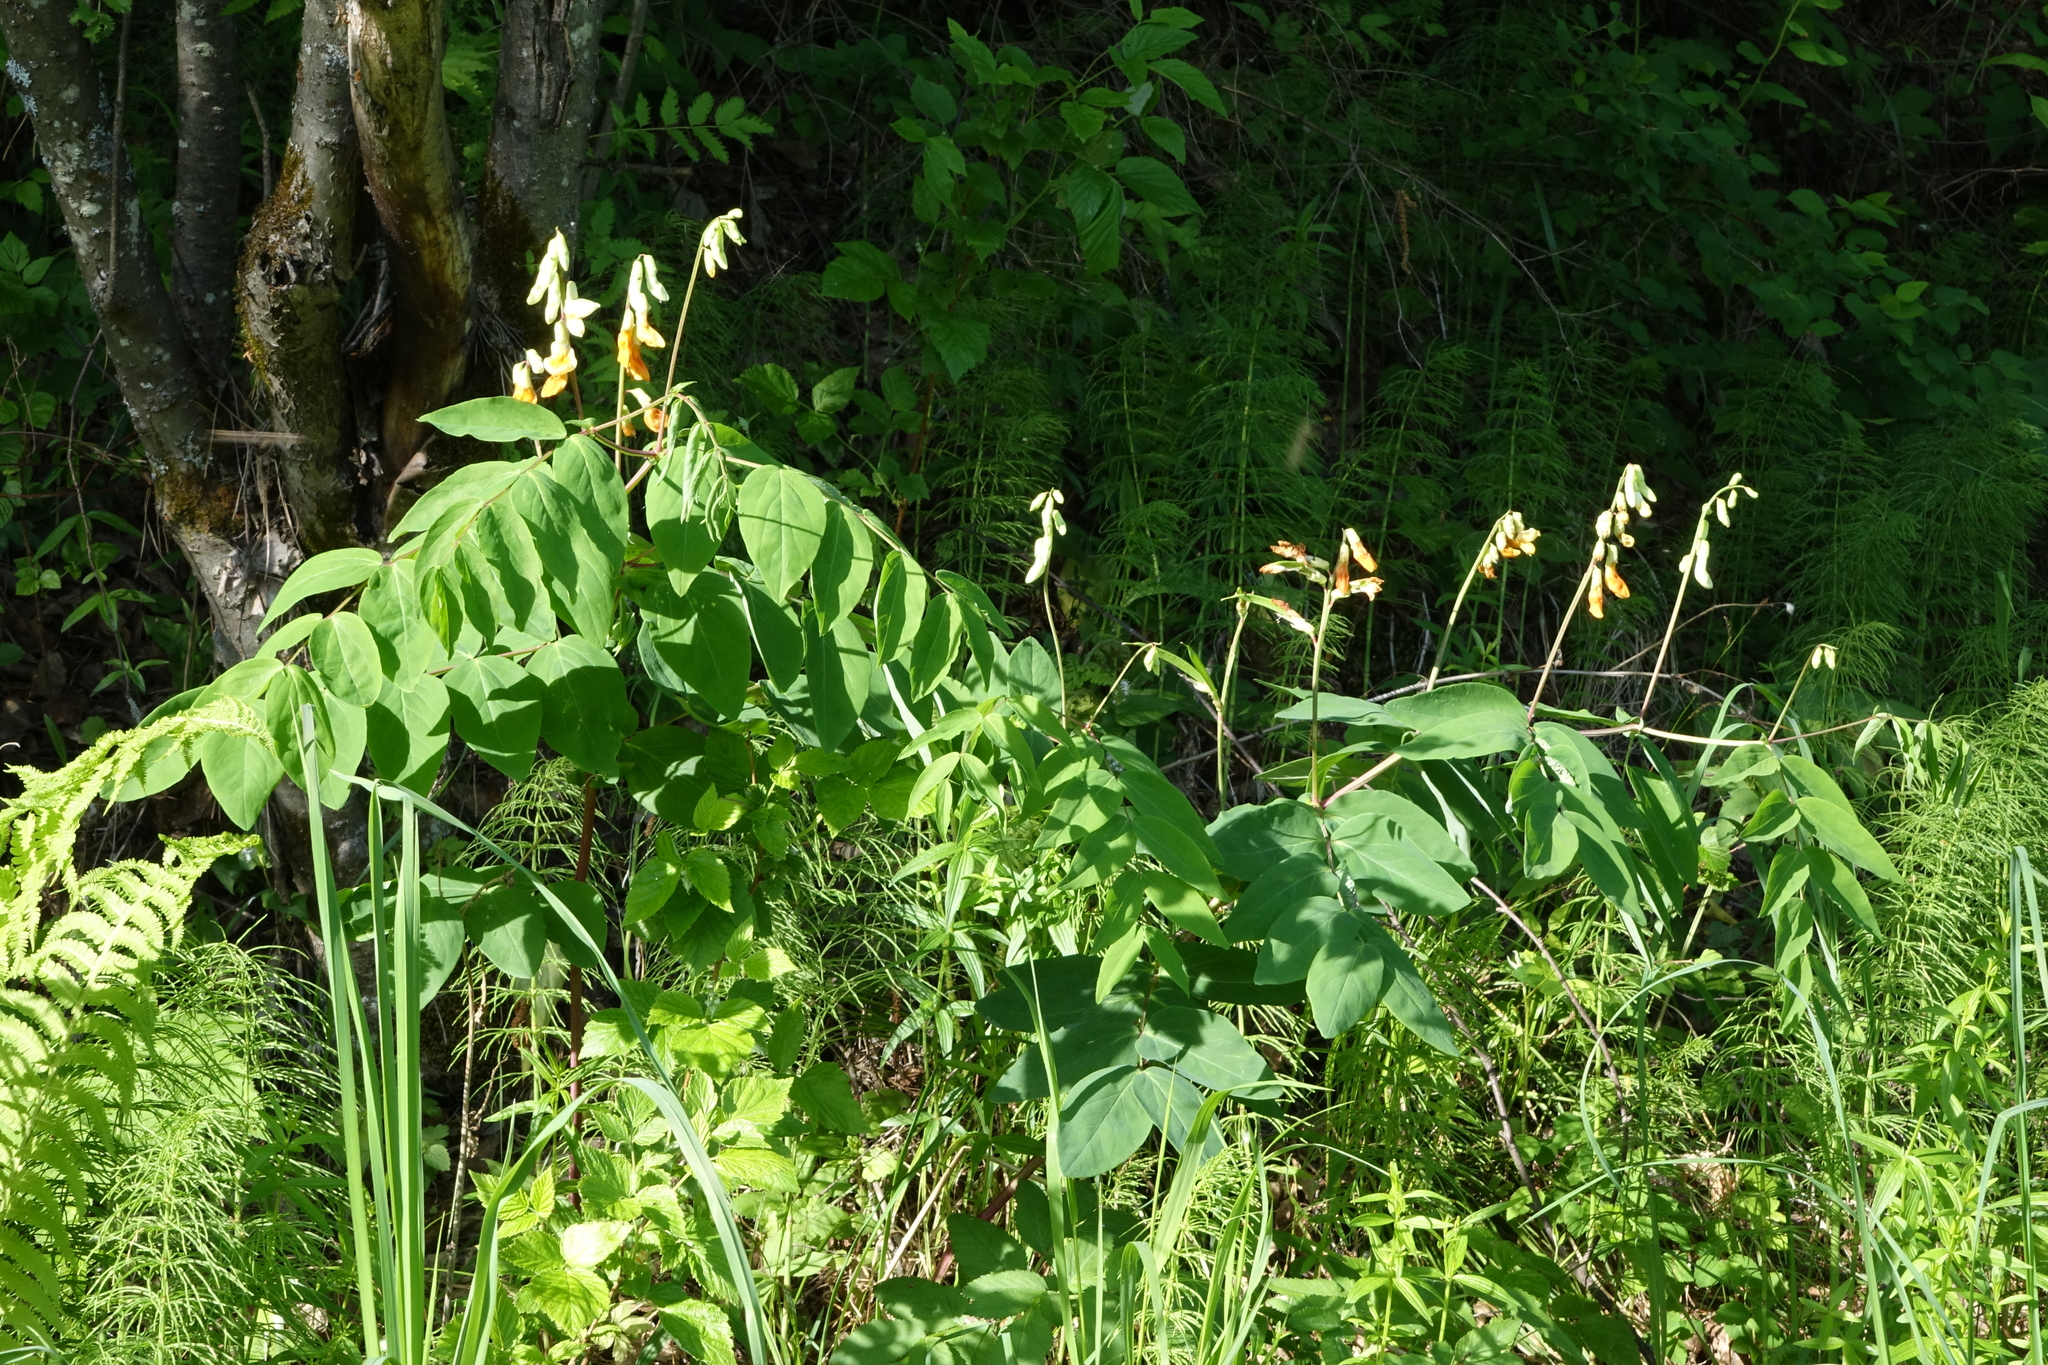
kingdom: Plantae
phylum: Tracheophyta
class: Magnoliopsida
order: Fabales
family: Fabaceae
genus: Lathyrus
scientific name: Lathyrus gmelinii
